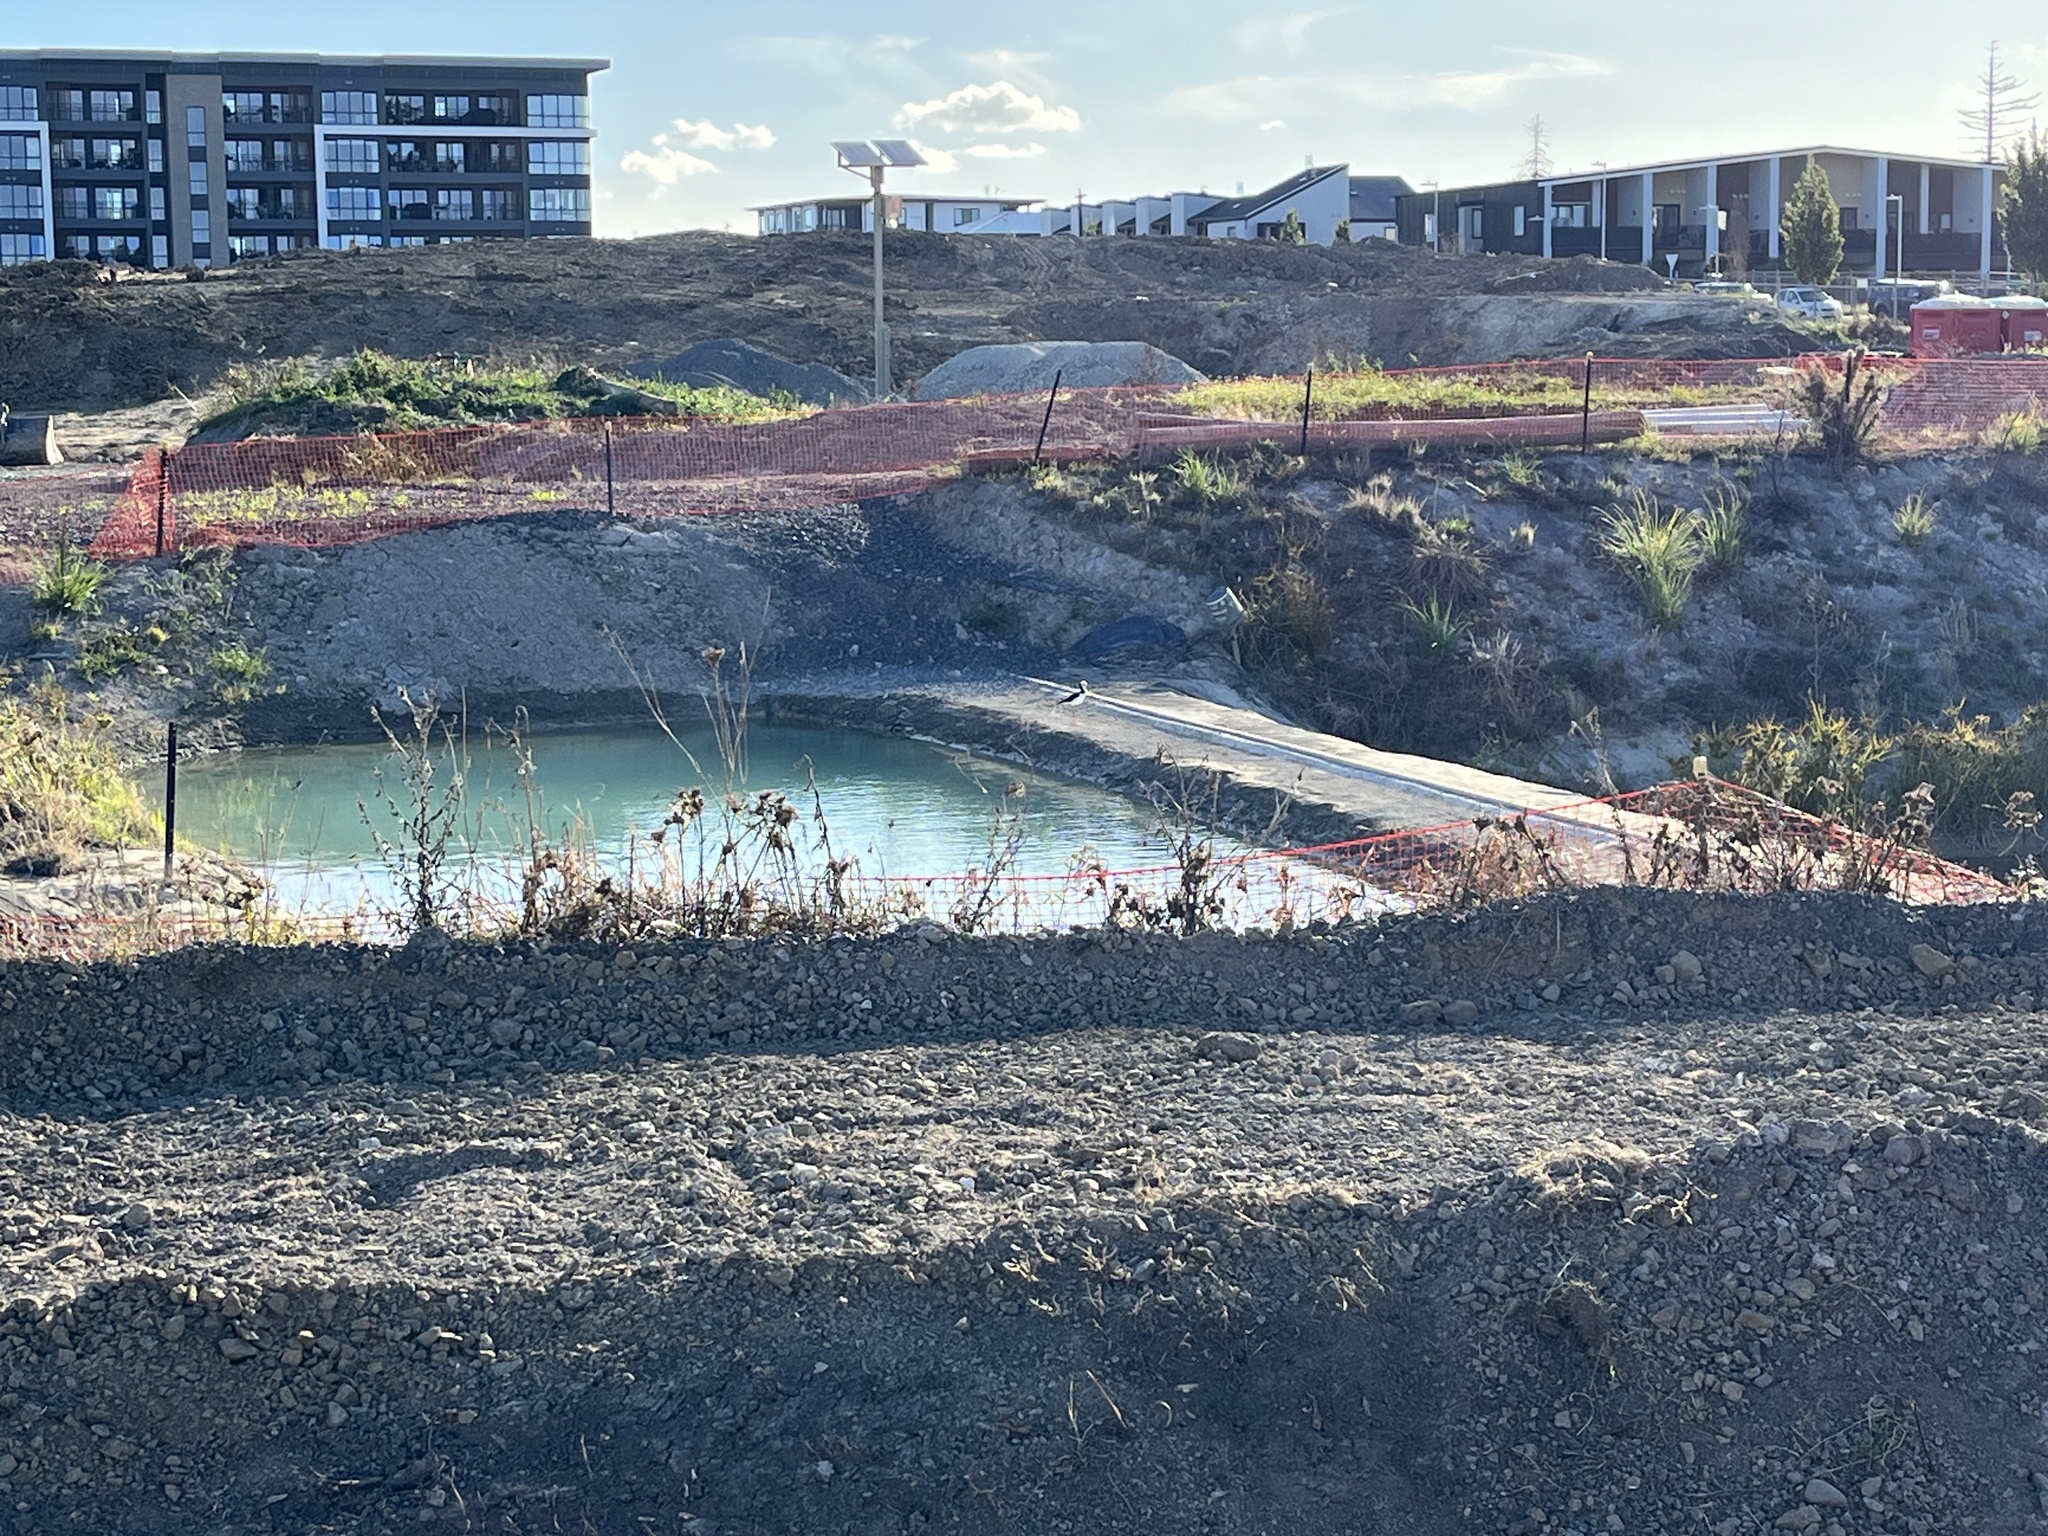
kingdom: Animalia
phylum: Chordata
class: Aves
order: Charadriiformes
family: Recurvirostridae
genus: Himantopus
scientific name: Himantopus leucocephalus
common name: White-headed stilt
